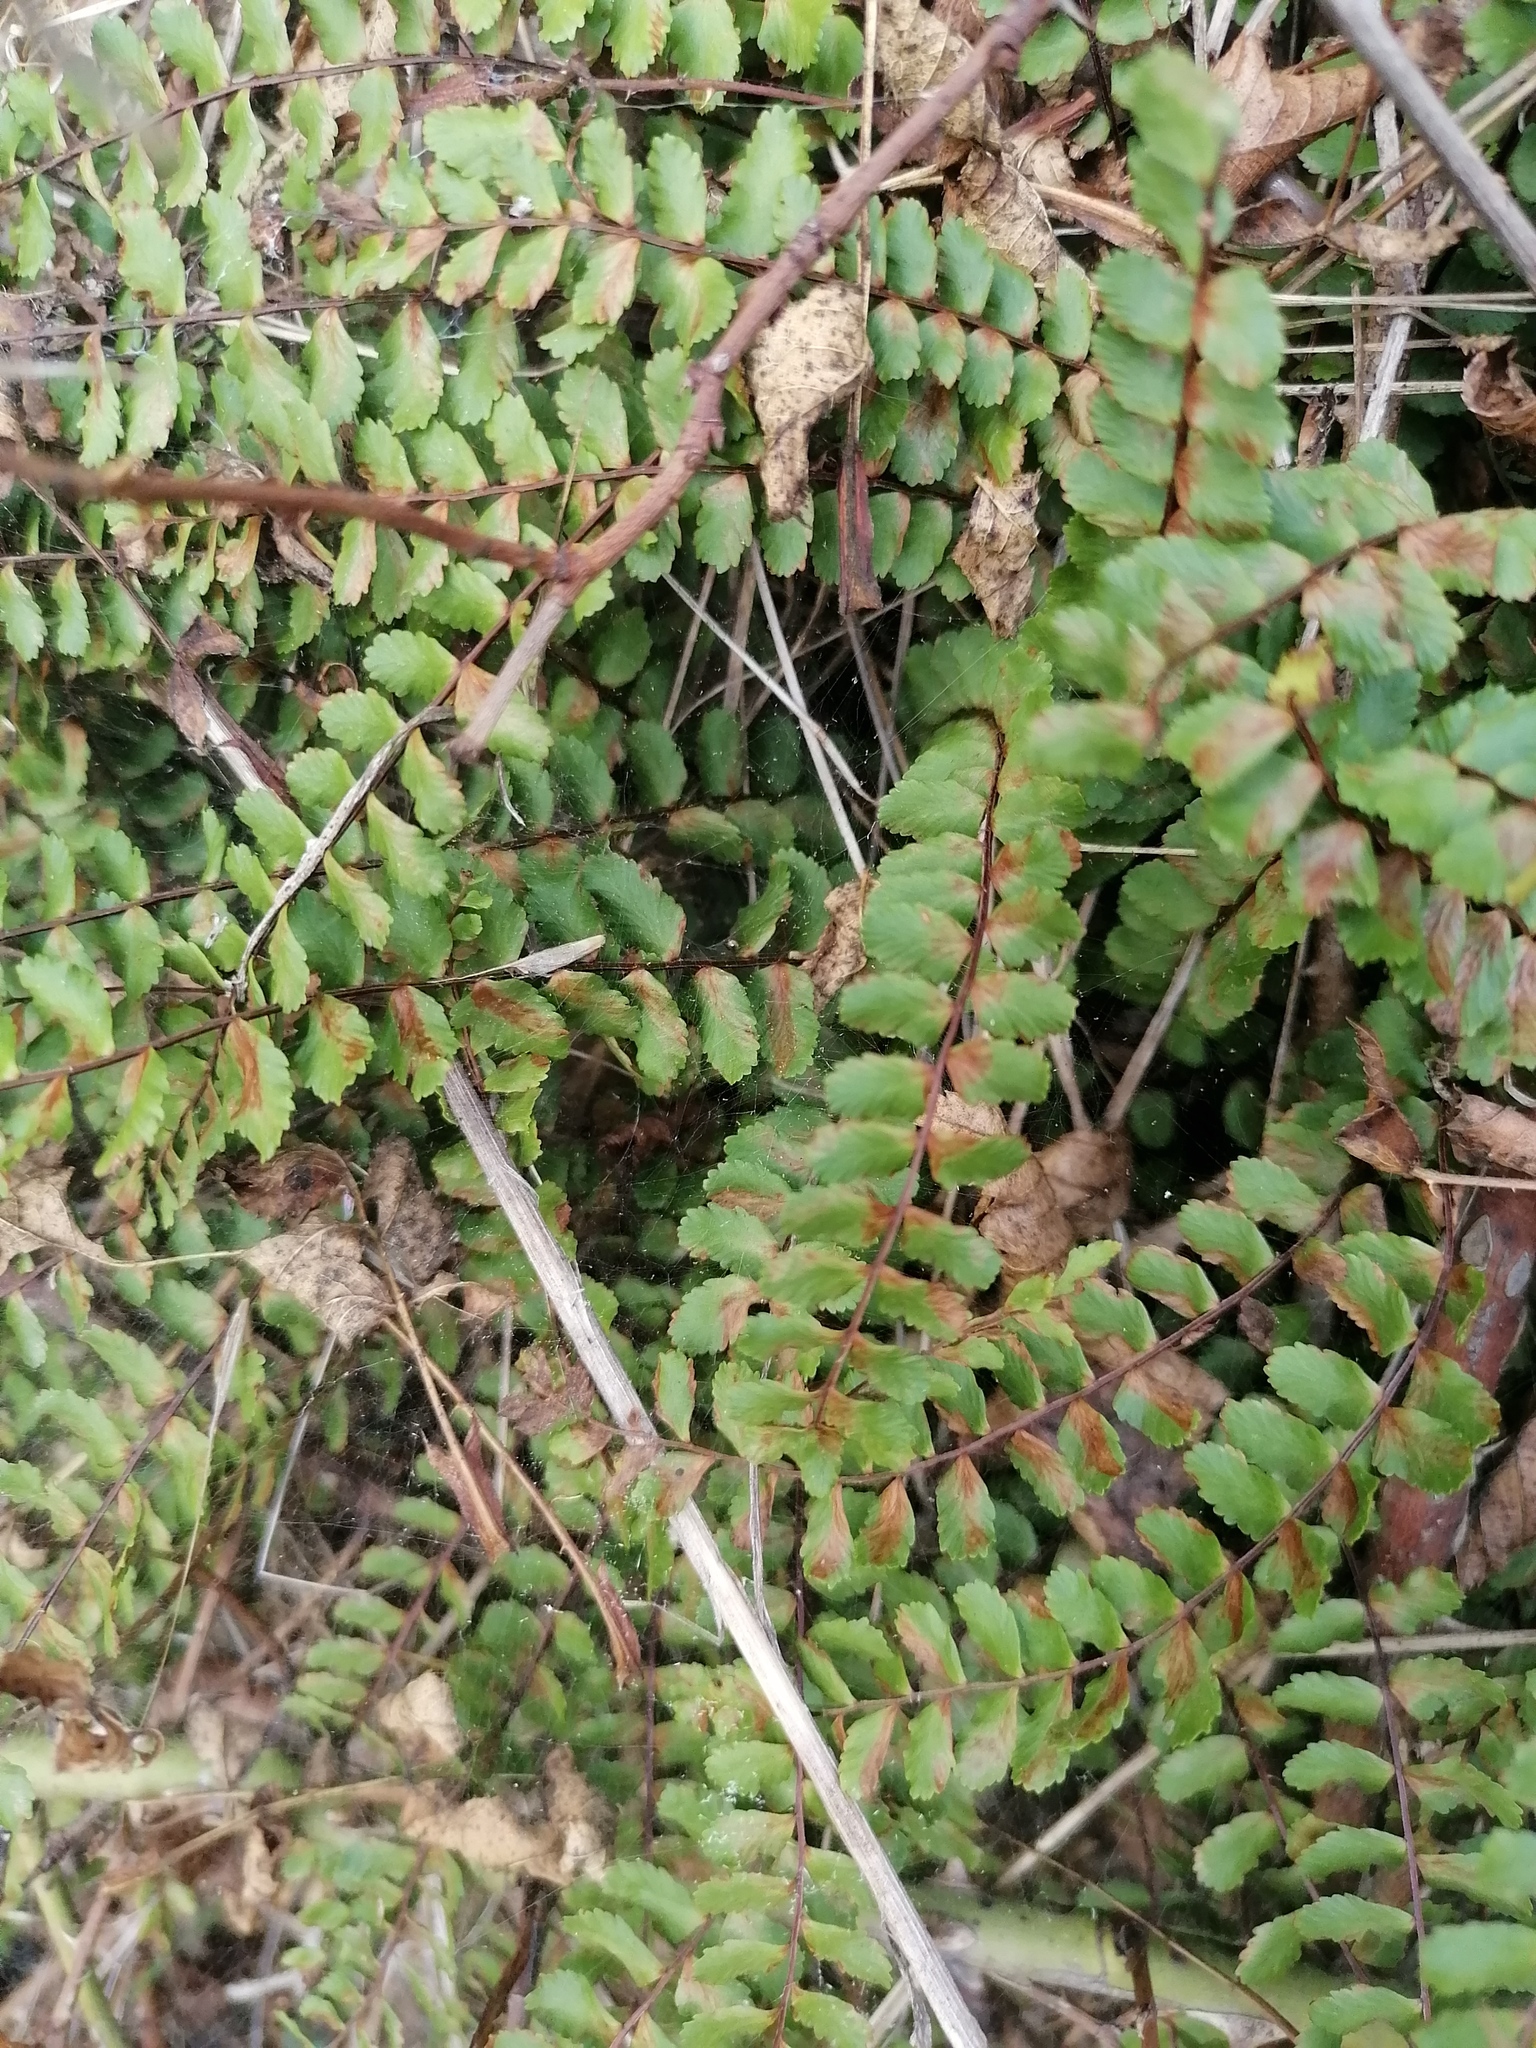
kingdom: Plantae
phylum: Tracheophyta
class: Polypodiopsida
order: Polypodiales
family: Aspleniaceae
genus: Asplenium
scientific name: Asplenium trichomanes
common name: Maidenhair spleenwort
